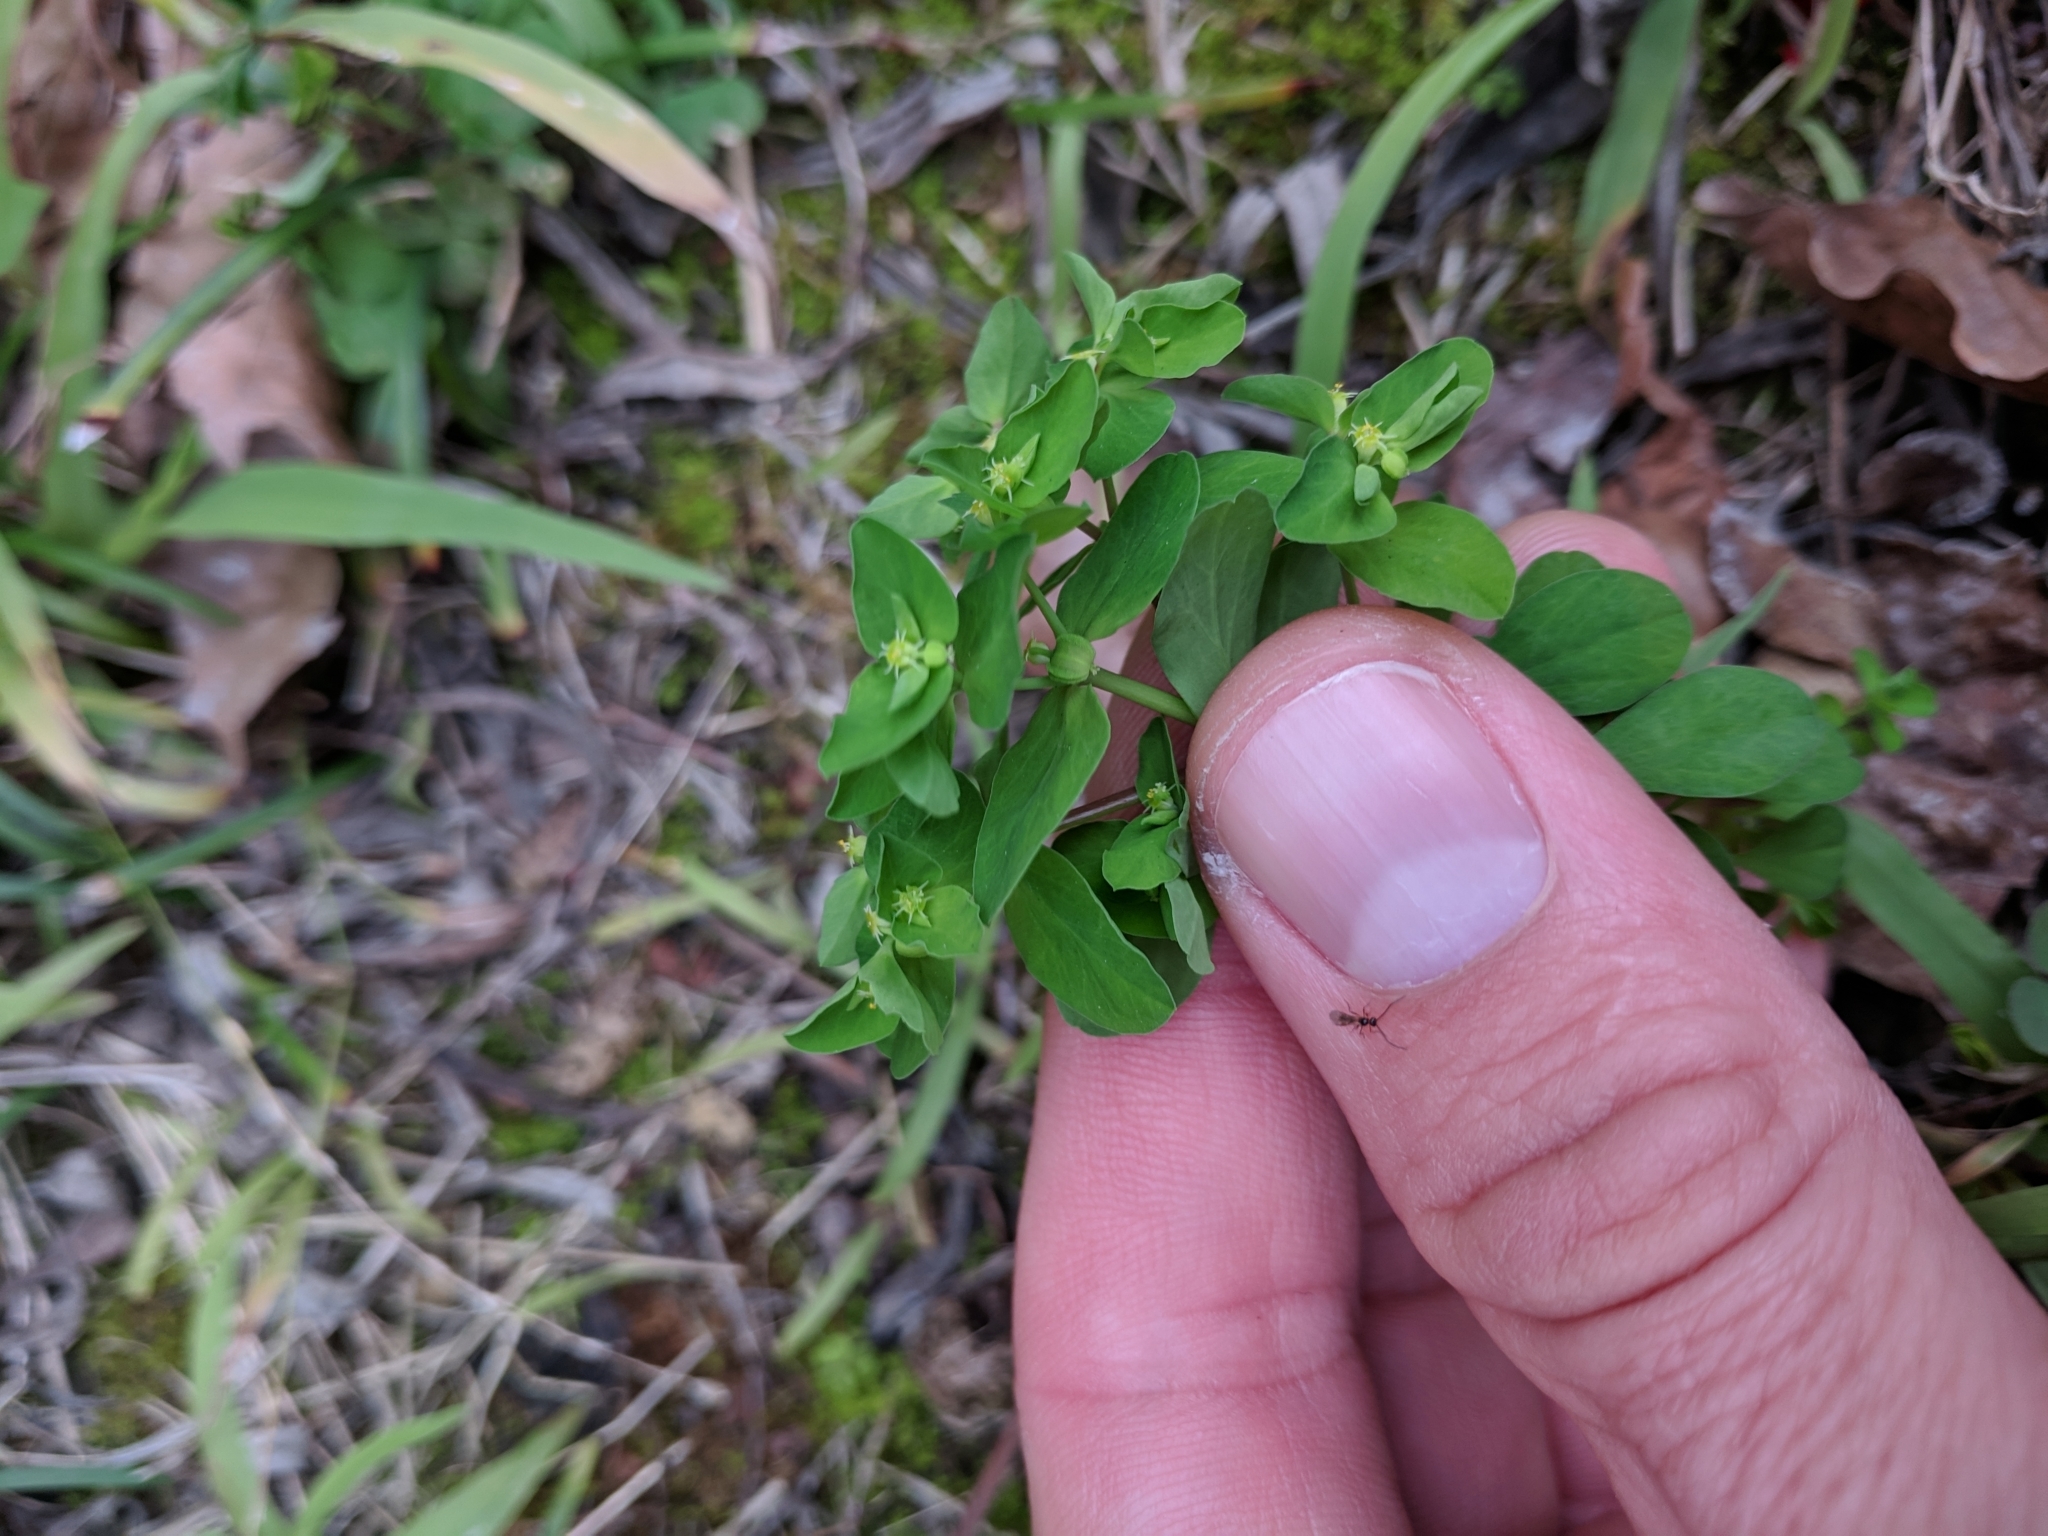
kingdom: Plantae
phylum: Tracheophyta
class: Magnoliopsida
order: Malpighiales
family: Euphorbiaceae
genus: Euphorbia
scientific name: Euphorbia peplus
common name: Petty spurge
